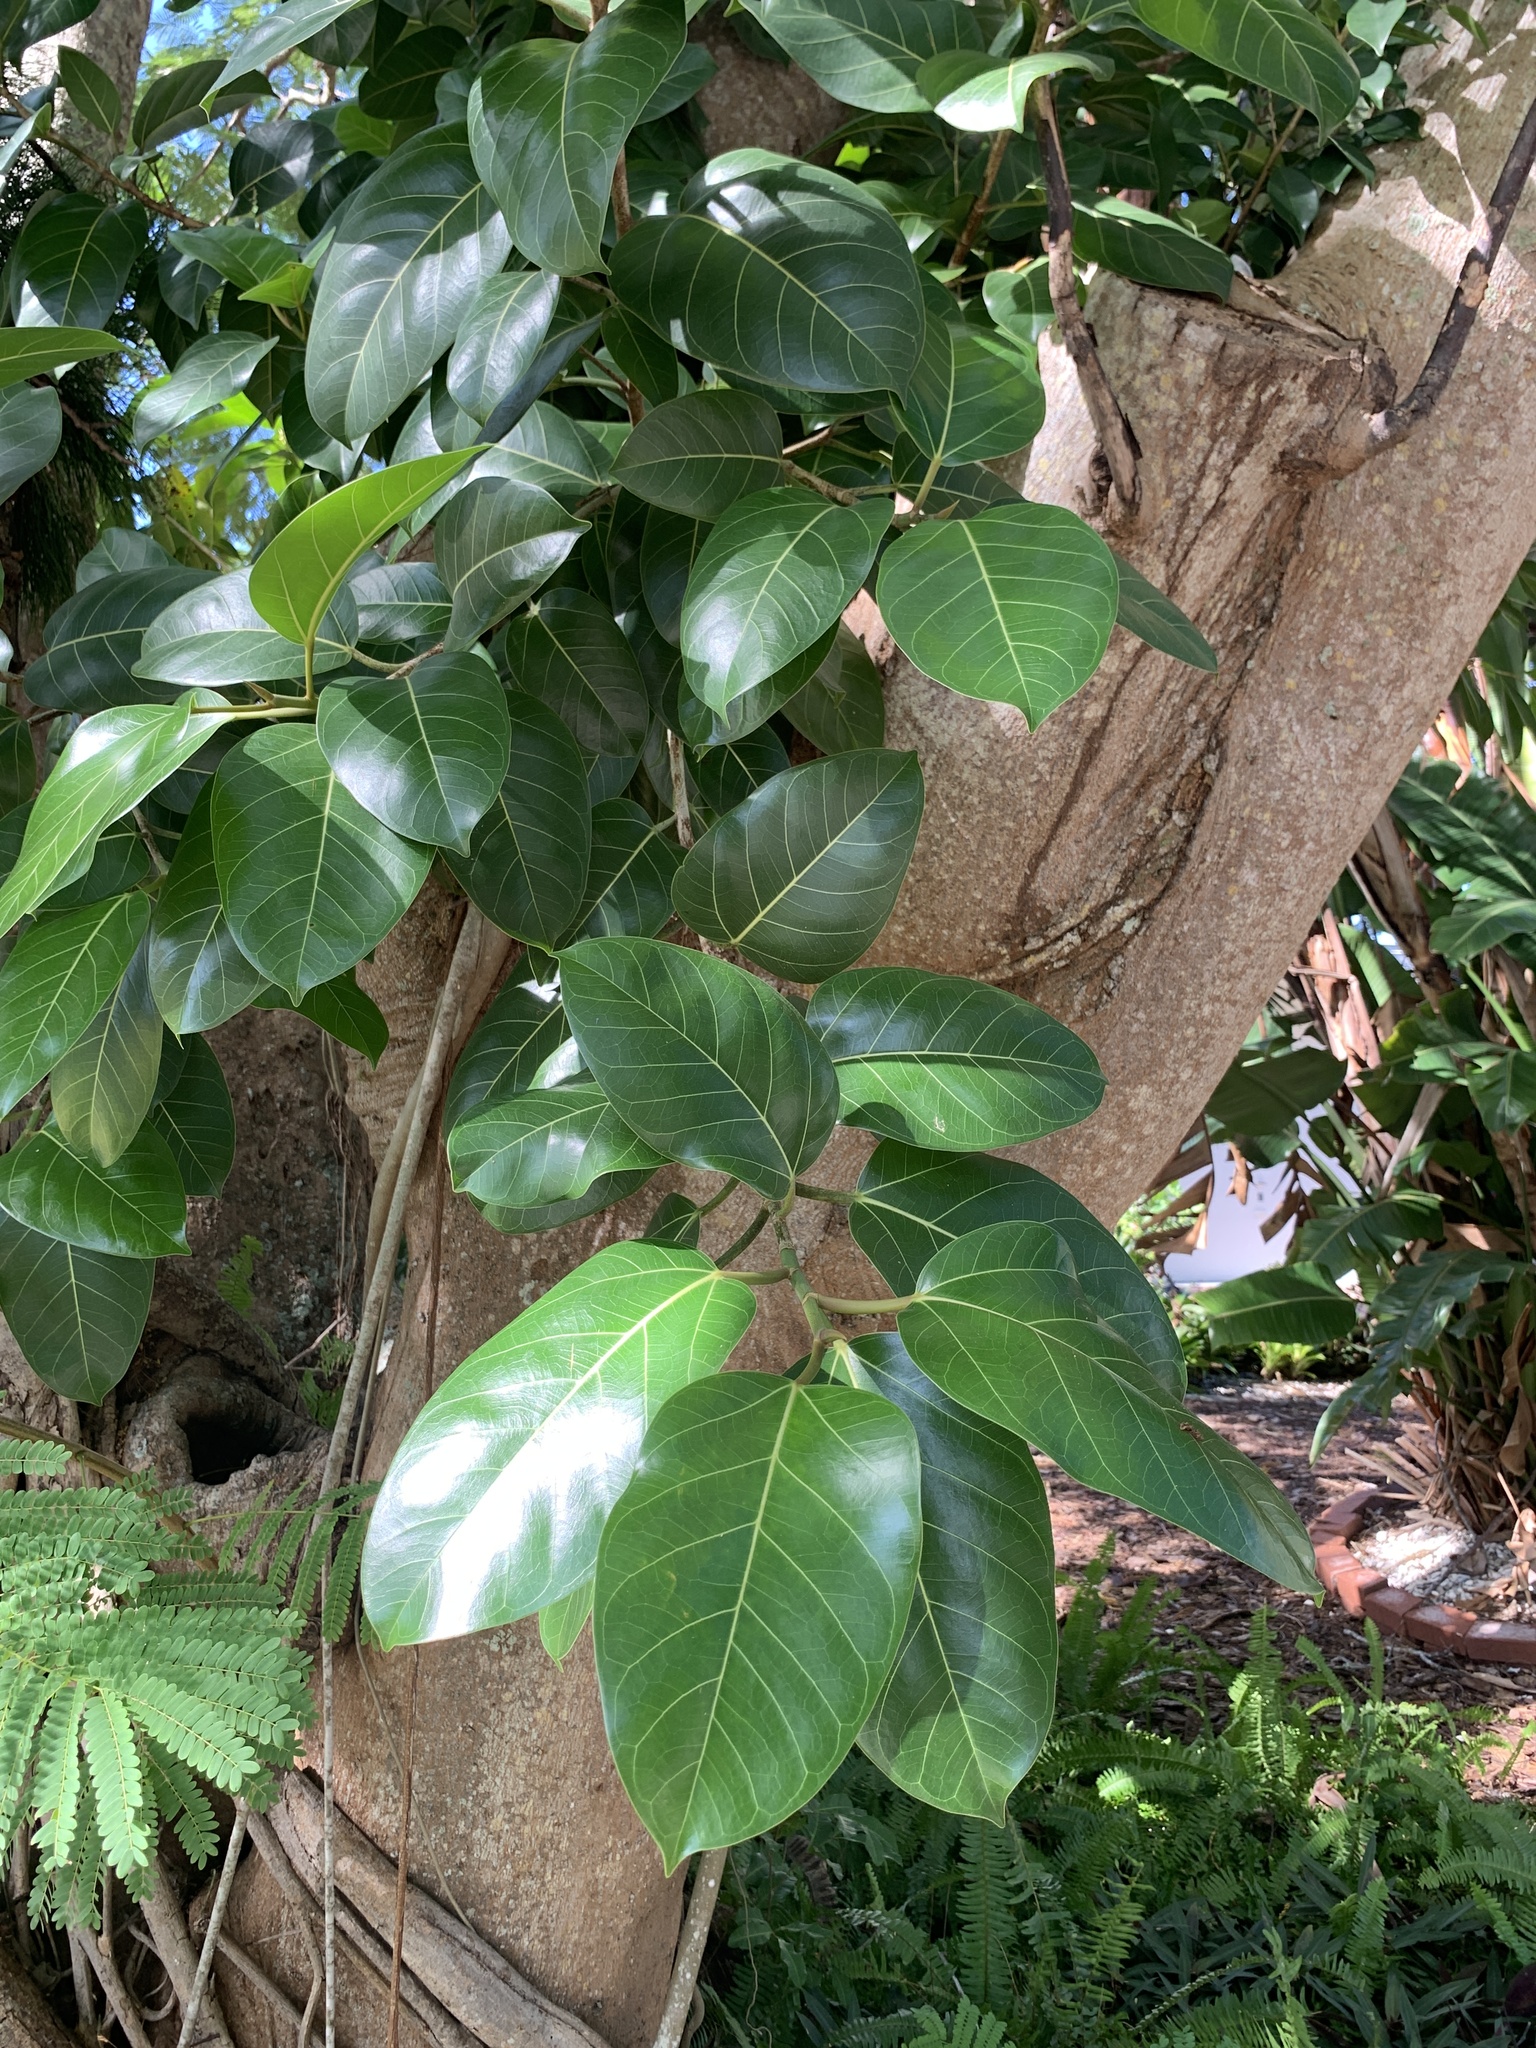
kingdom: Plantae
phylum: Tracheophyta
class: Magnoliopsida
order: Rosales
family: Moraceae
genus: Ficus
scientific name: Ficus altissima
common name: Council tree
